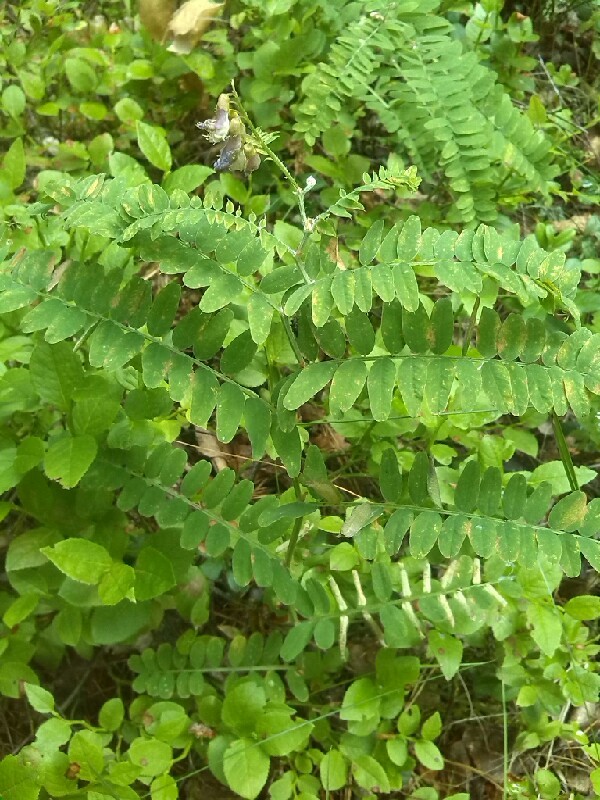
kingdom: Plantae
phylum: Tracheophyta
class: Magnoliopsida
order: Fabales
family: Fabaceae
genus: Vicia
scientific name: Vicia cassubica
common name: Danzig vetch
